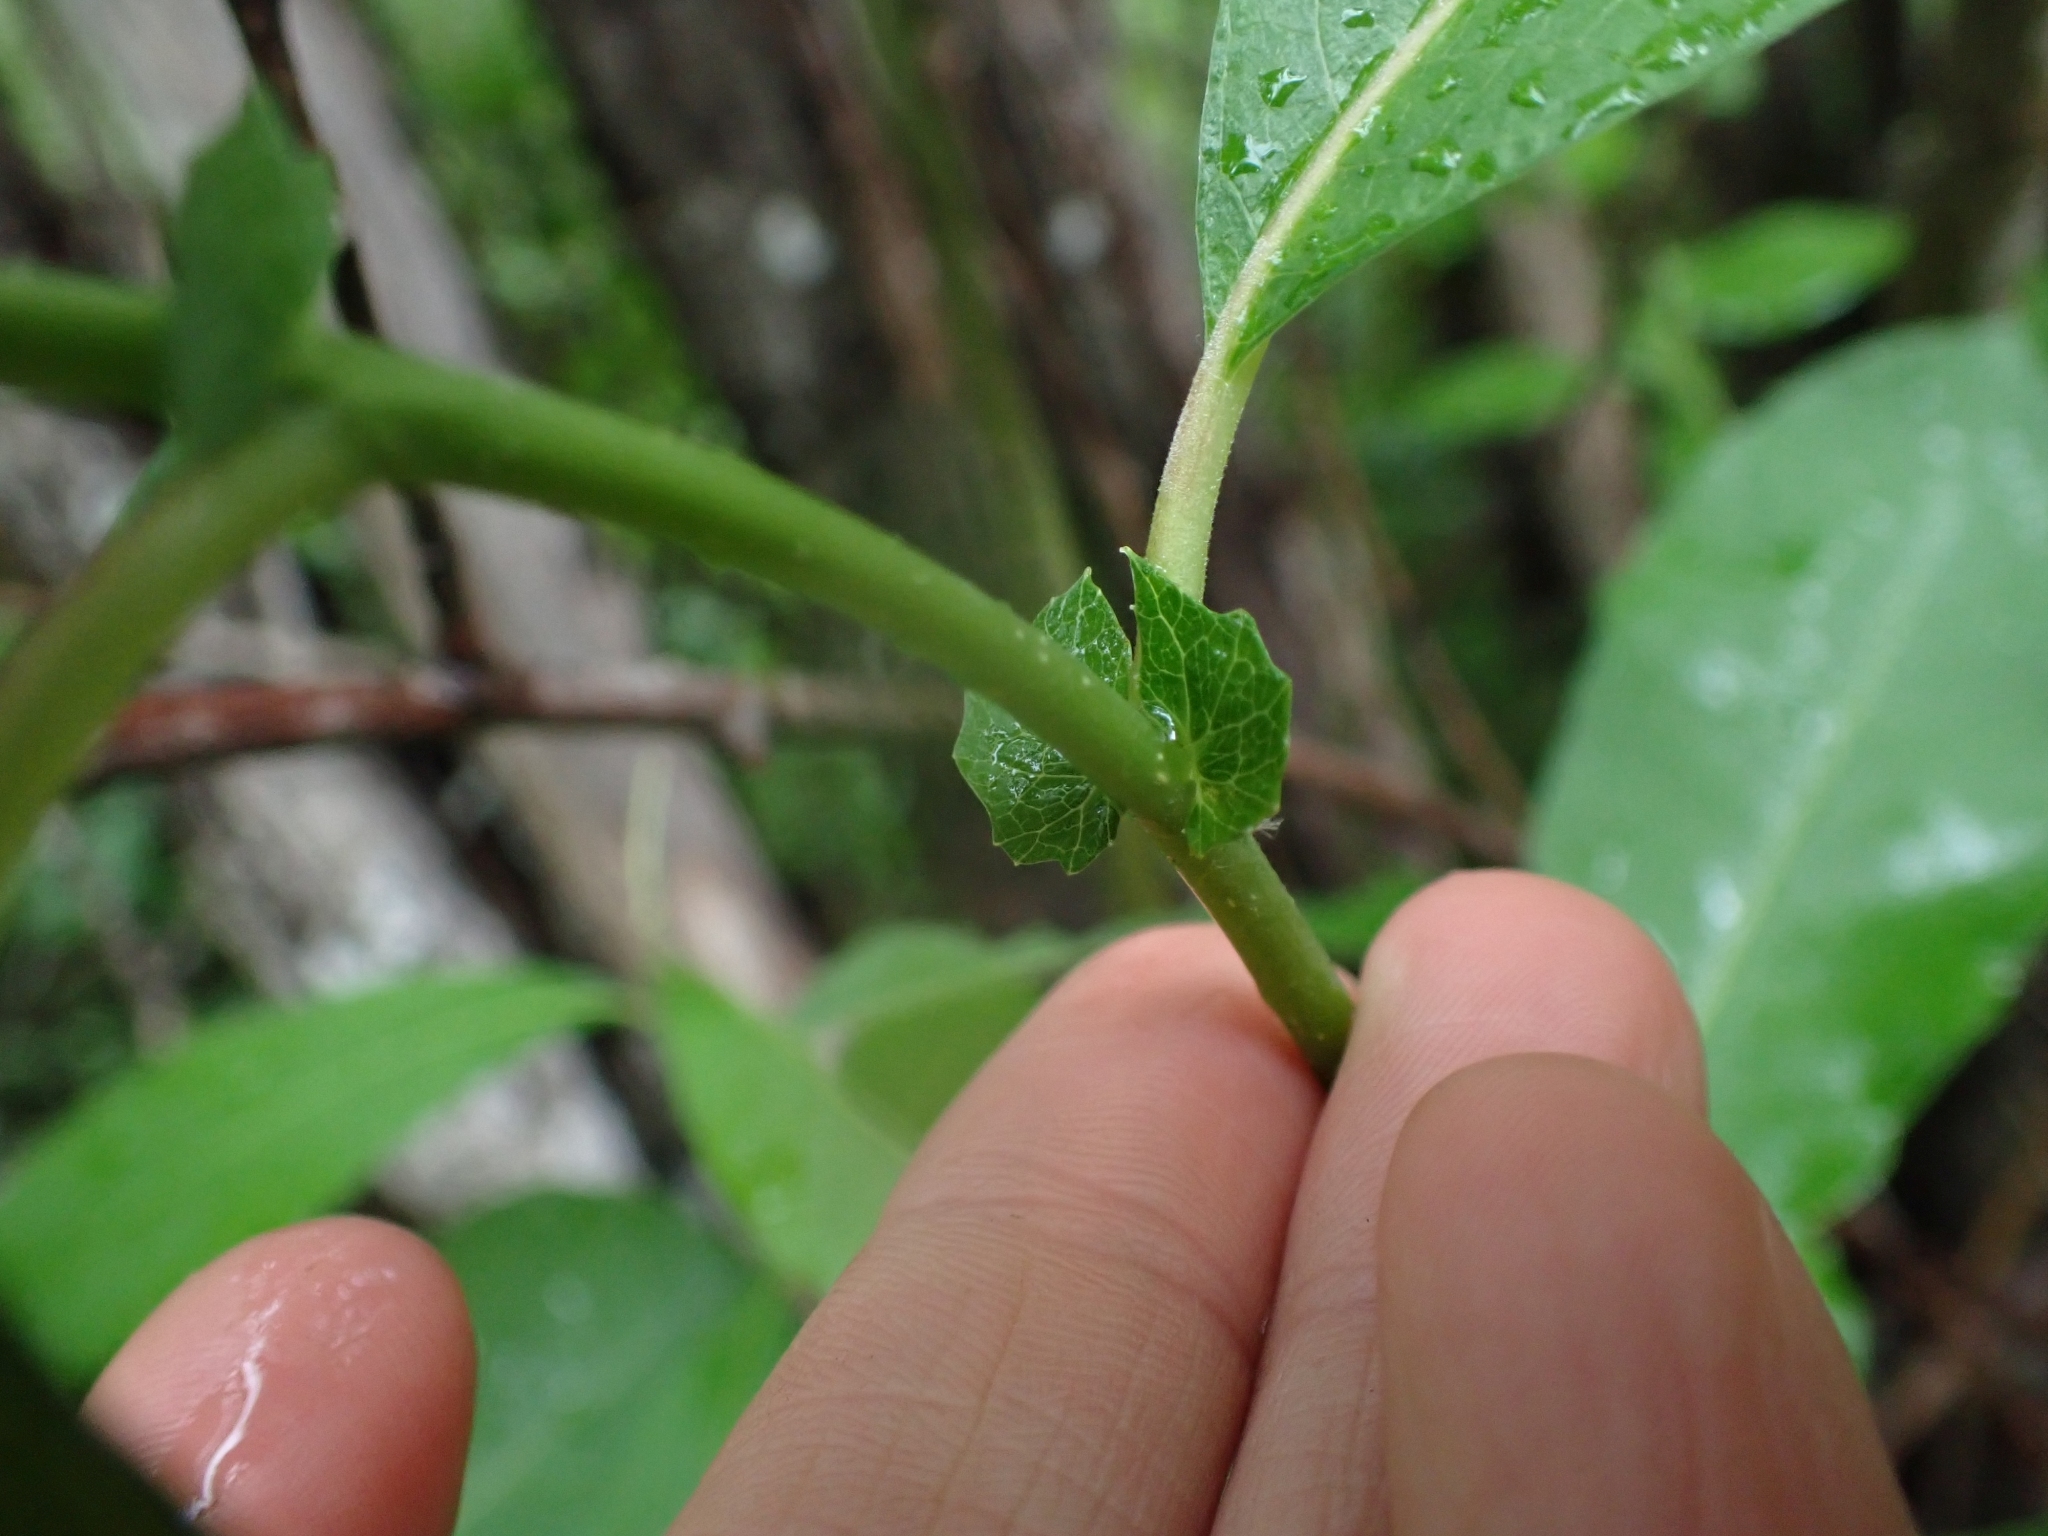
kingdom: Plantae
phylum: Tracheophyta
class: Magnoliopsida
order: Malpighiales
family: Salicaceae
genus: Salix
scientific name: Salix scouleriana
